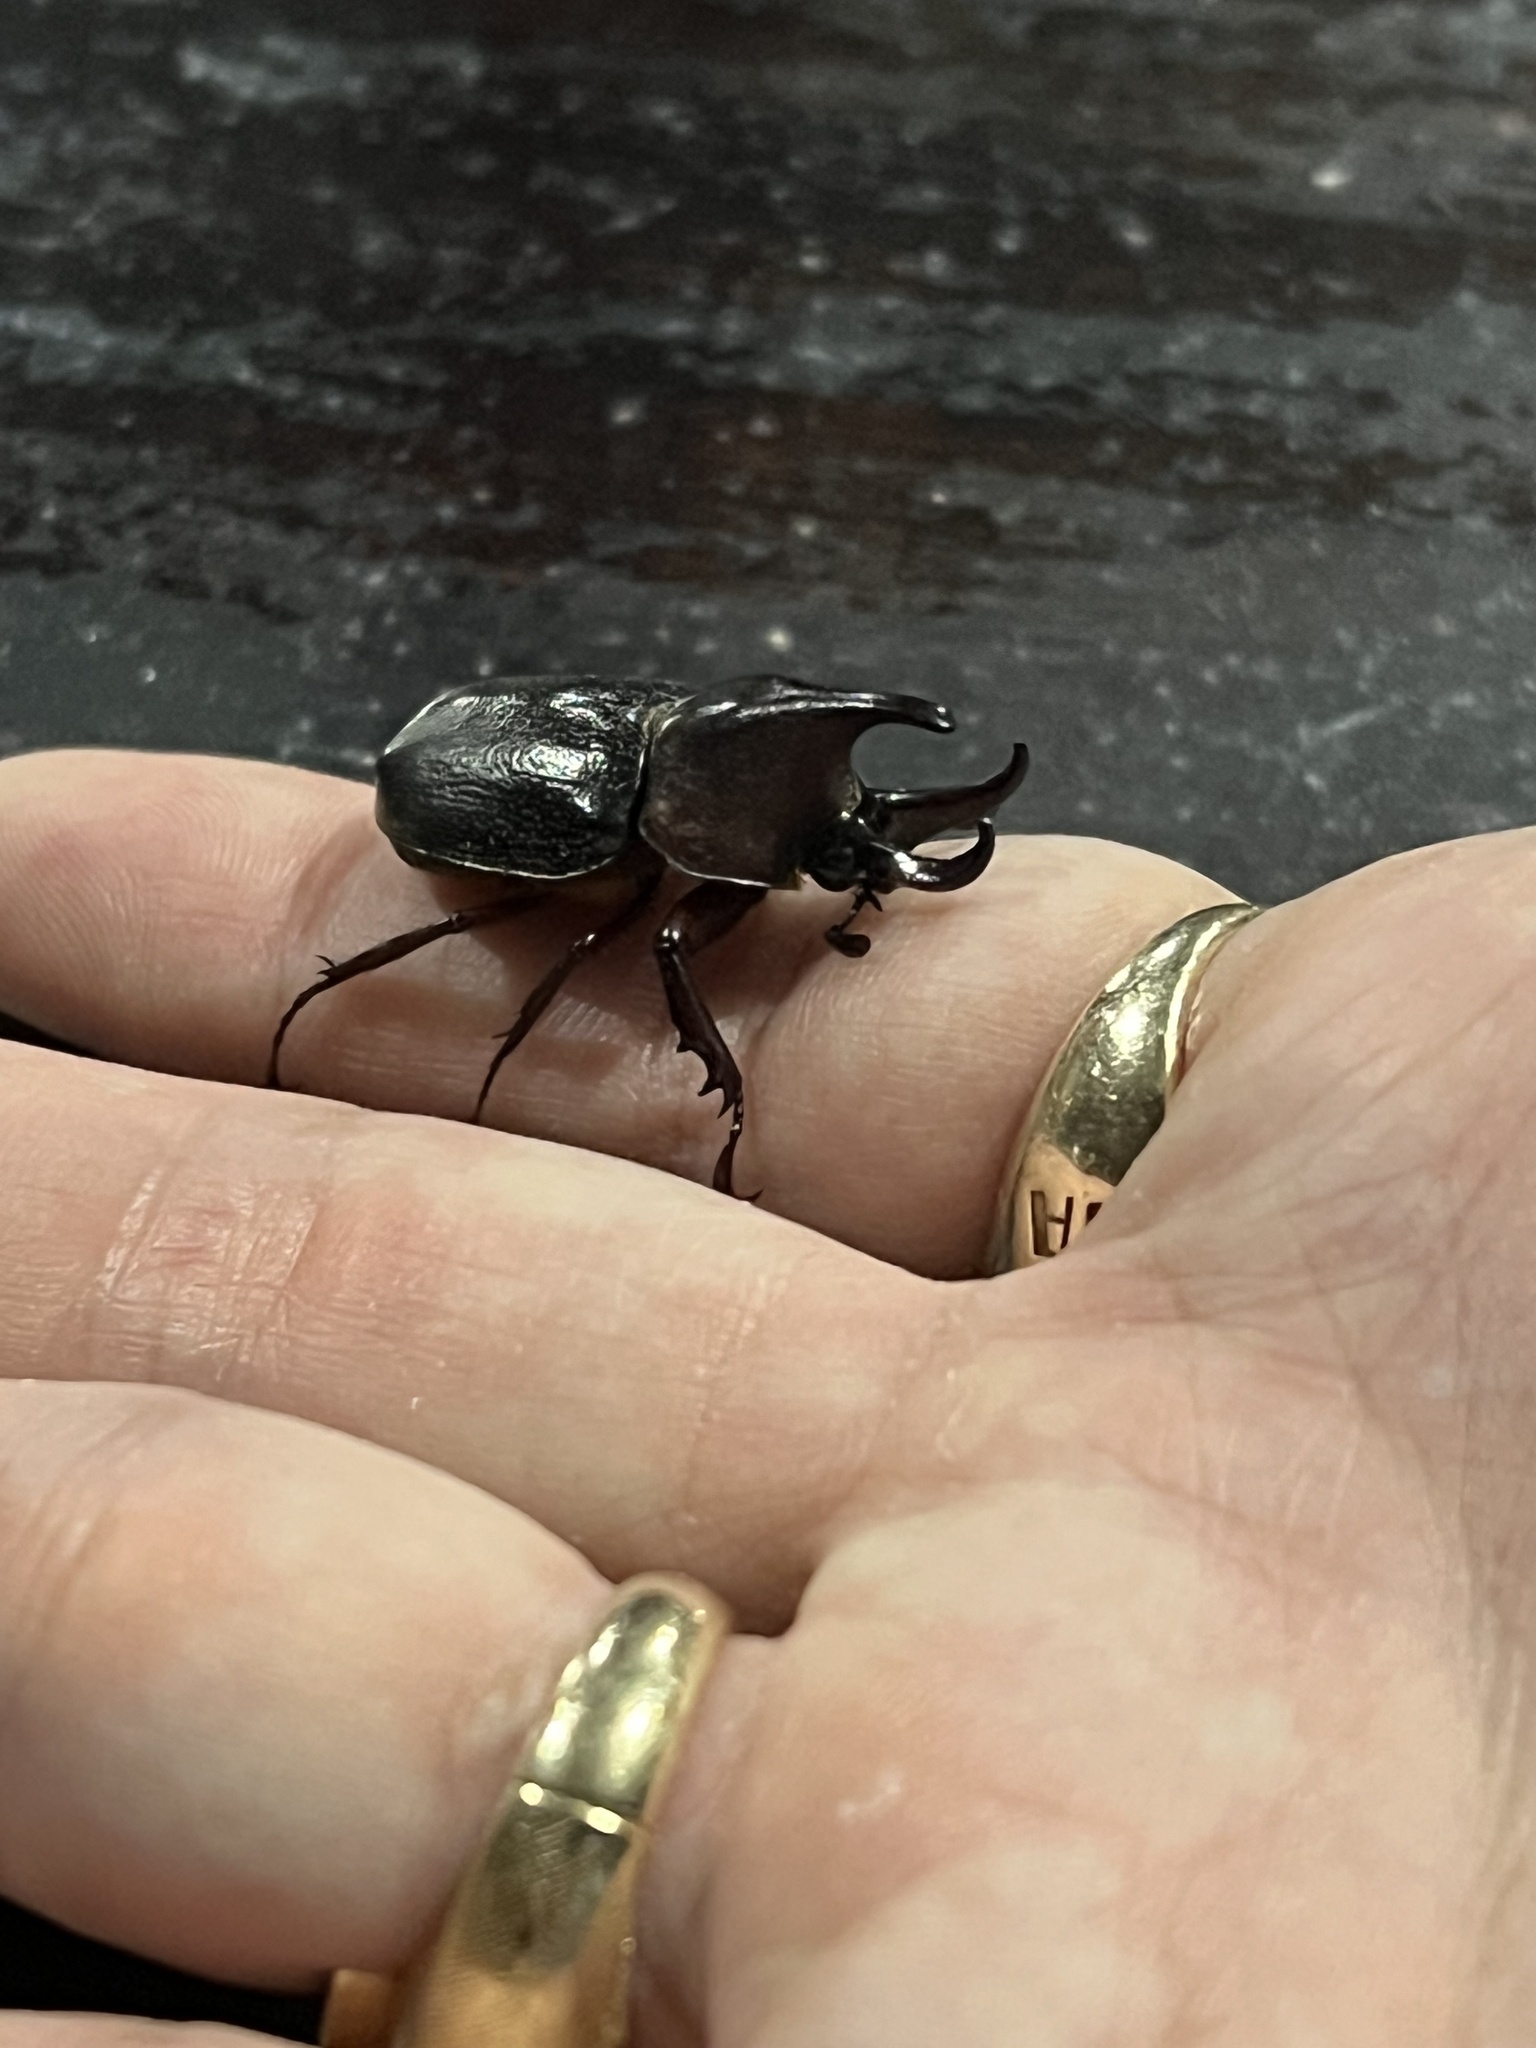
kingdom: Animalia
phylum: Arthropoda
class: Insecta
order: Coleoptera
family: Scarabaeidae
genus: Aegopsis
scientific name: Aegopsis curvicornis
